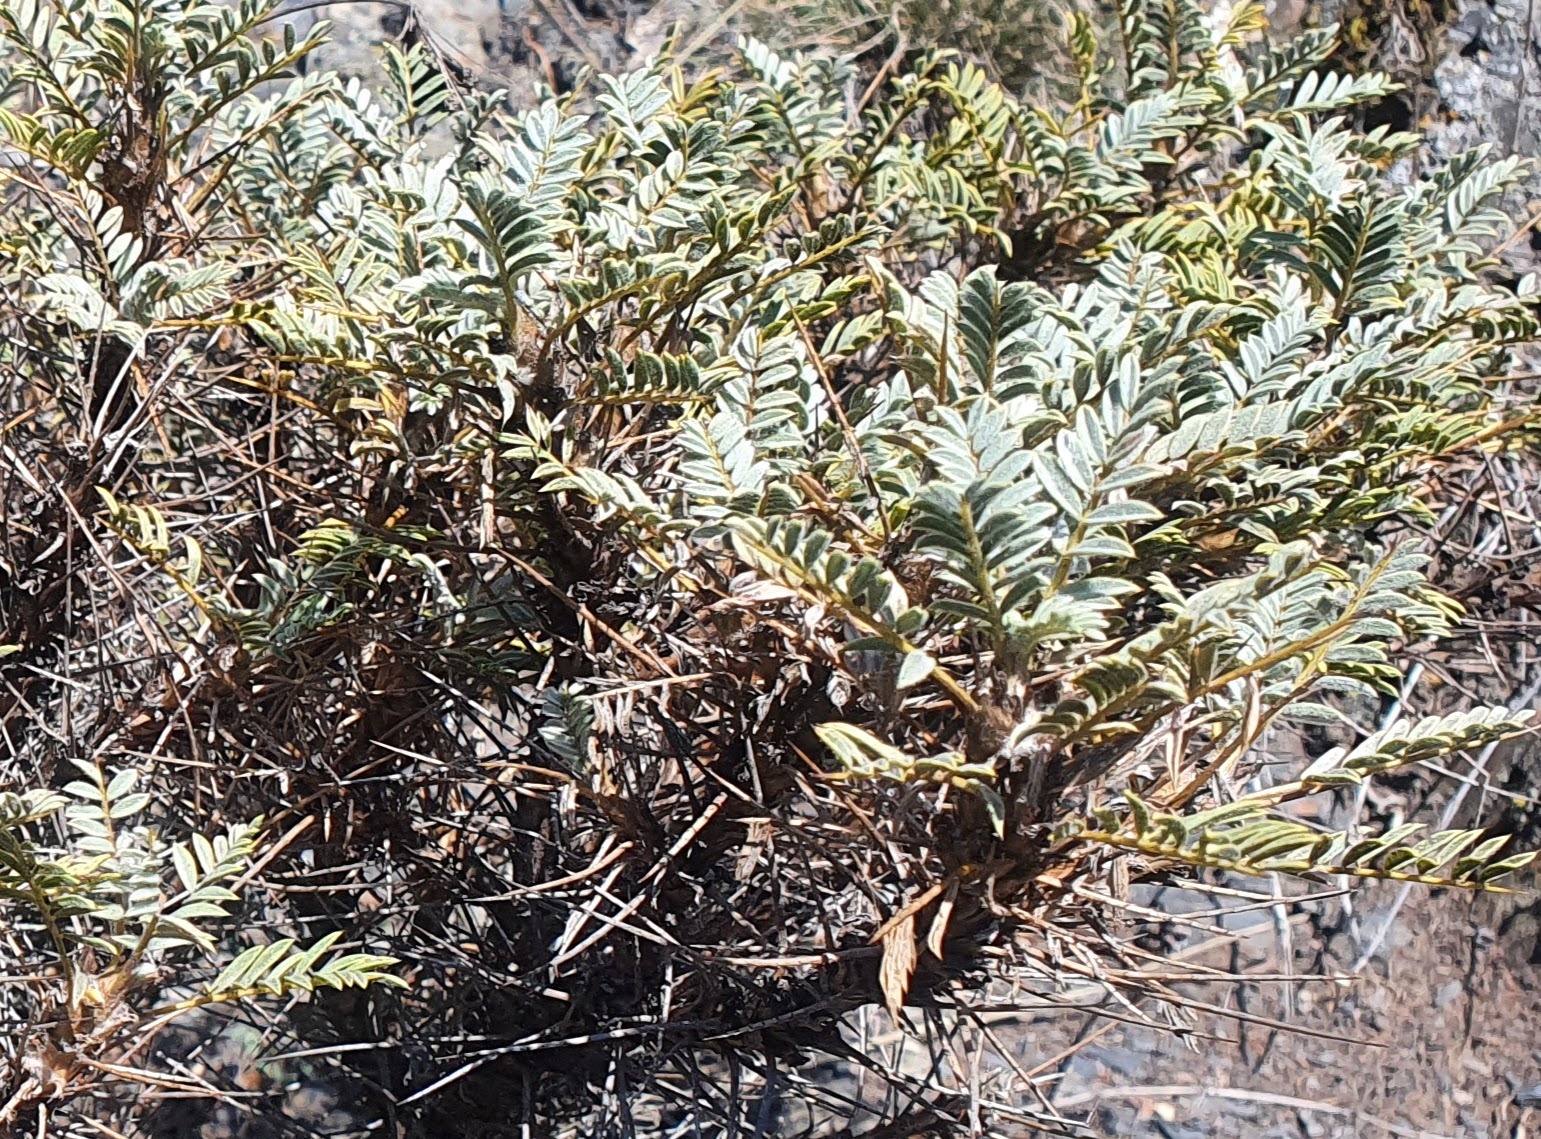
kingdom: Plantae
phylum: Tracheophyta
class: Magnoliopsida
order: Fabales
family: Fabaceae
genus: Astragalus
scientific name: Astragalus denudatus
